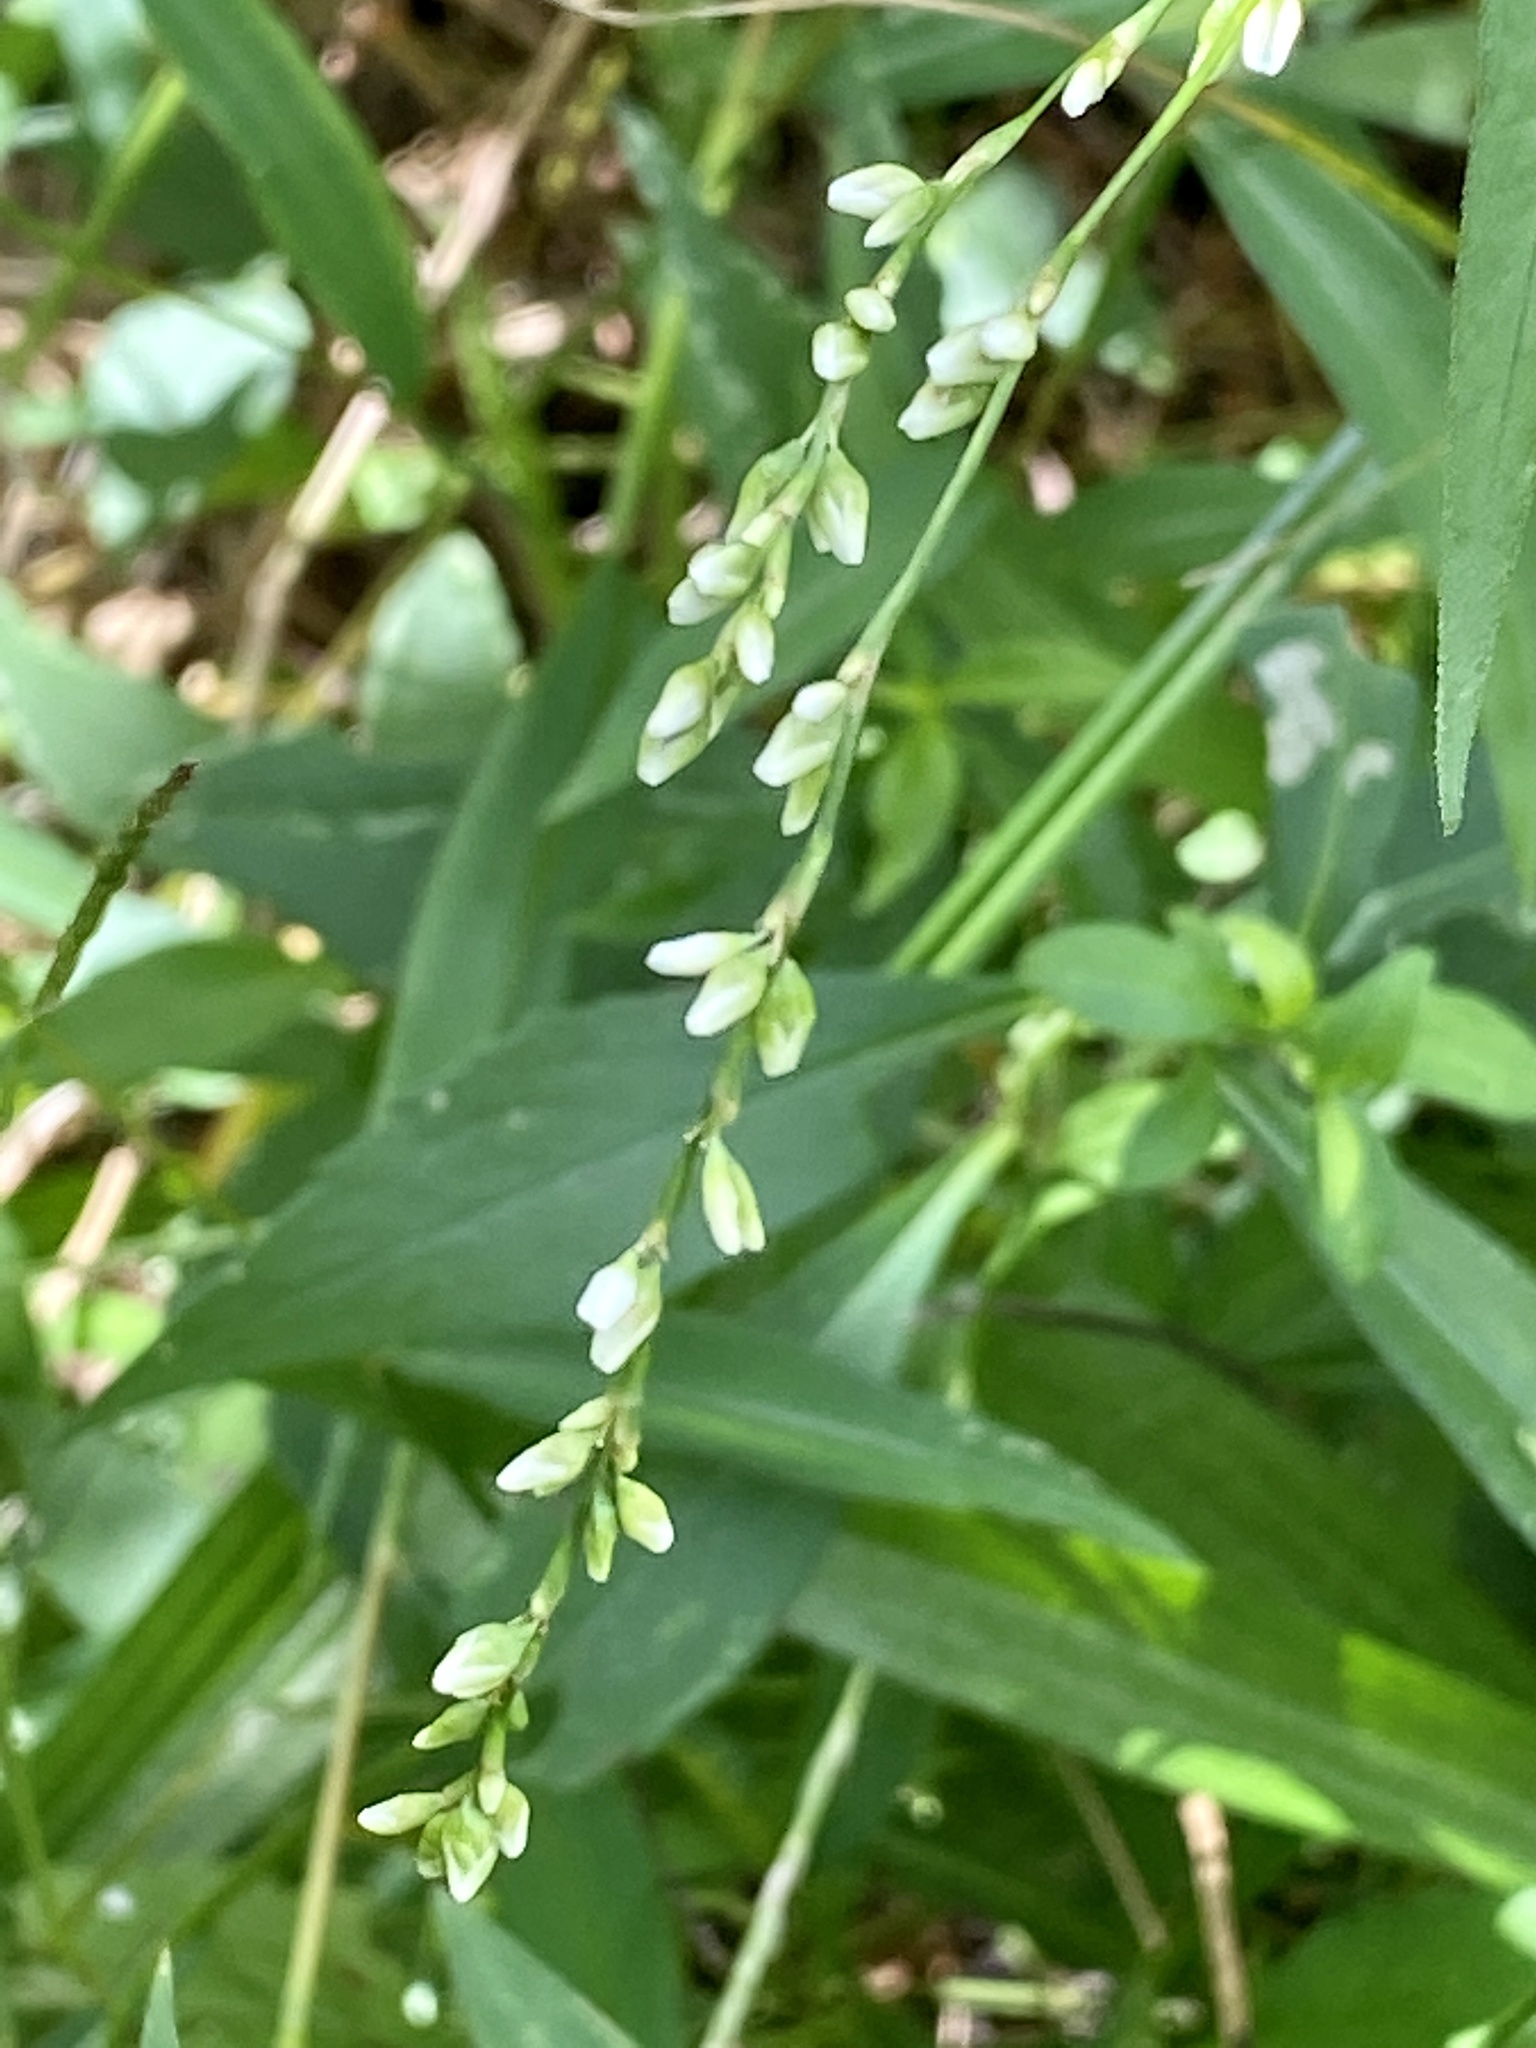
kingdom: Plantae
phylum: Tracheophyta
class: Magnoliopsida
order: Caryophyllales
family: Polygonaceae
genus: Persicaria
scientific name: Persicaria punctata
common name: Dotted smartweed
